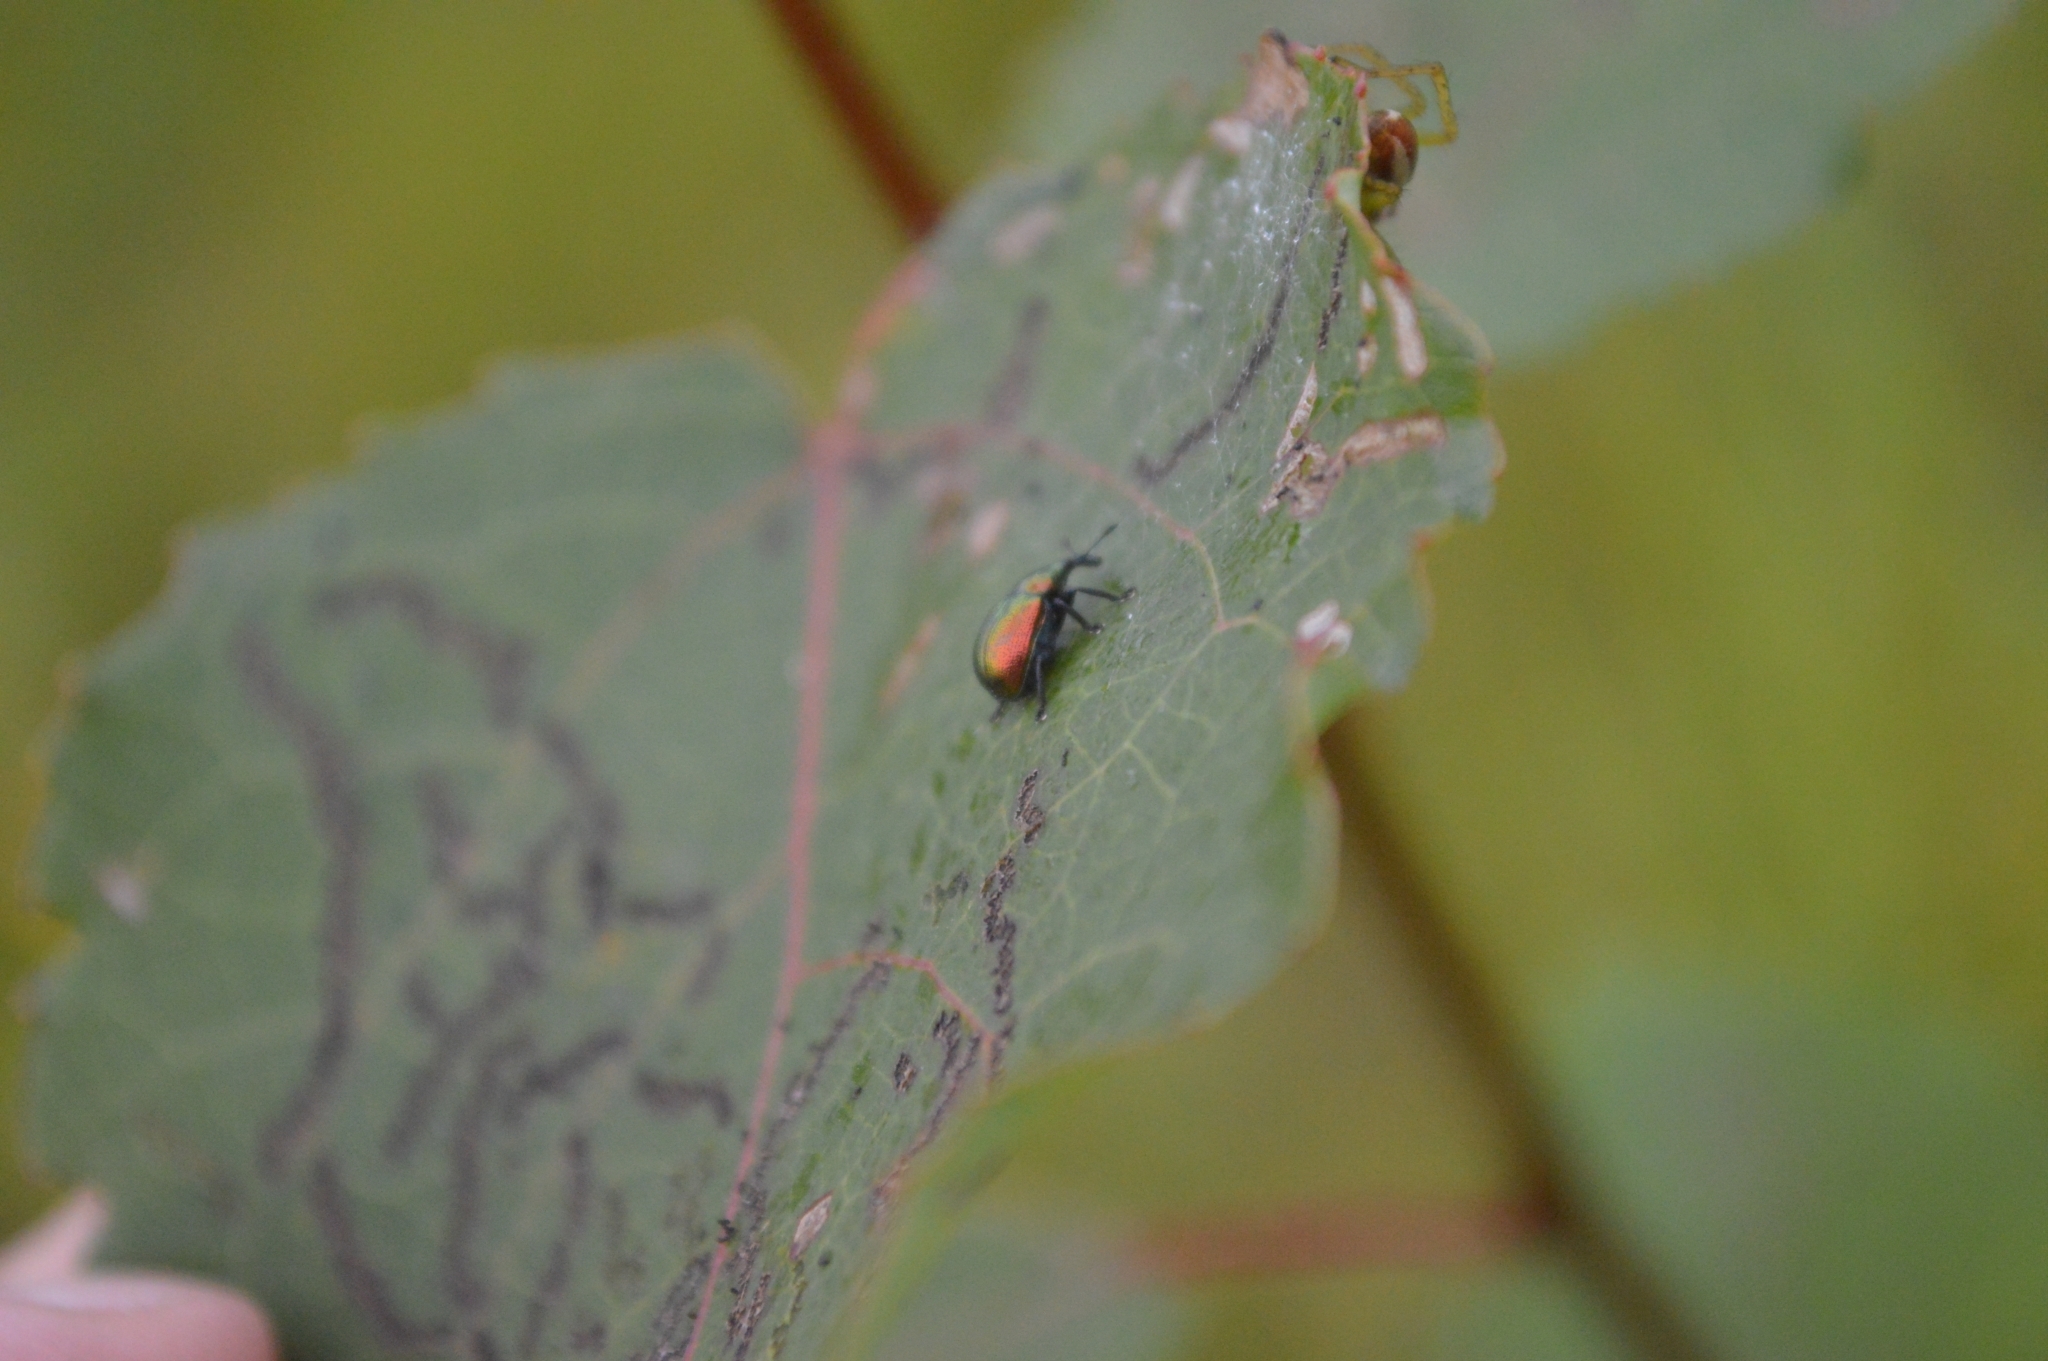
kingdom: Animalia
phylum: Arthropoda
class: Insecta
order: Coleoptera
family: Attelabidae
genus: Byctiscus
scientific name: Byctiscus populi
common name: Leaf-rolling weevil
